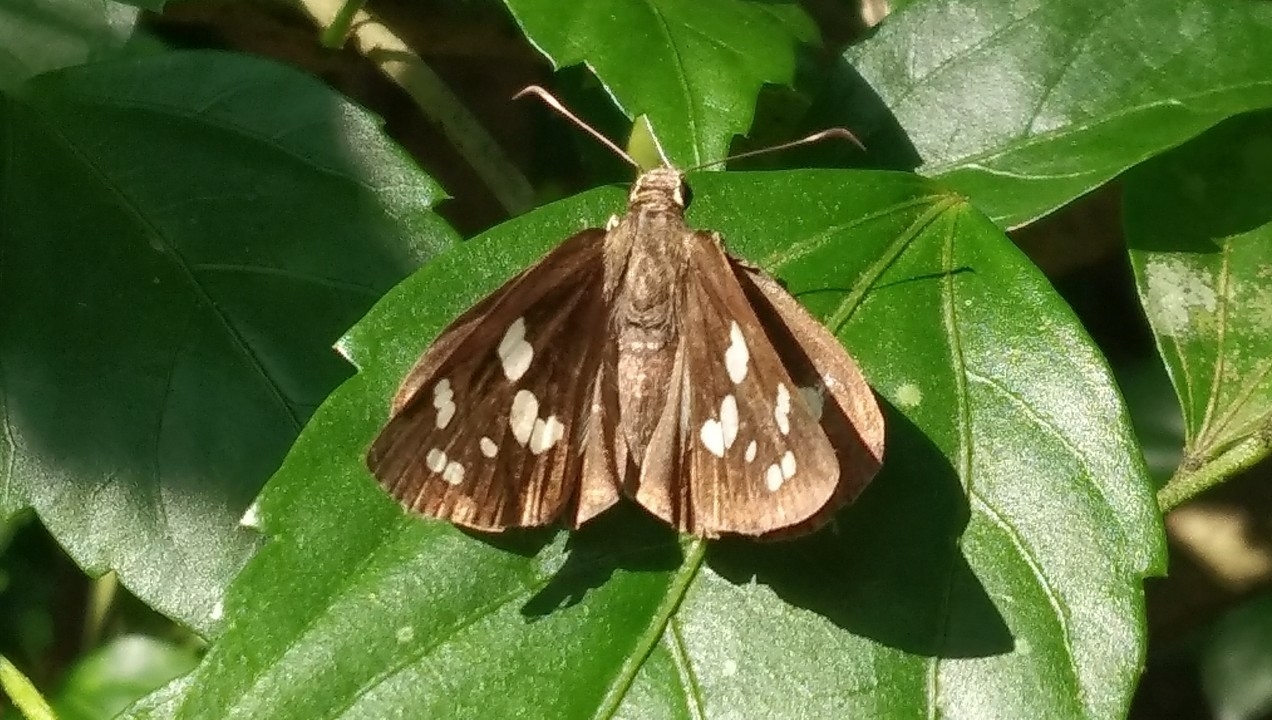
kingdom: Animalia
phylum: Arthropoda
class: Insecta
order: Lepidoptera
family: Hesperiidae
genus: Udaspes
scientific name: Udaspes folus
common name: Grass demon
